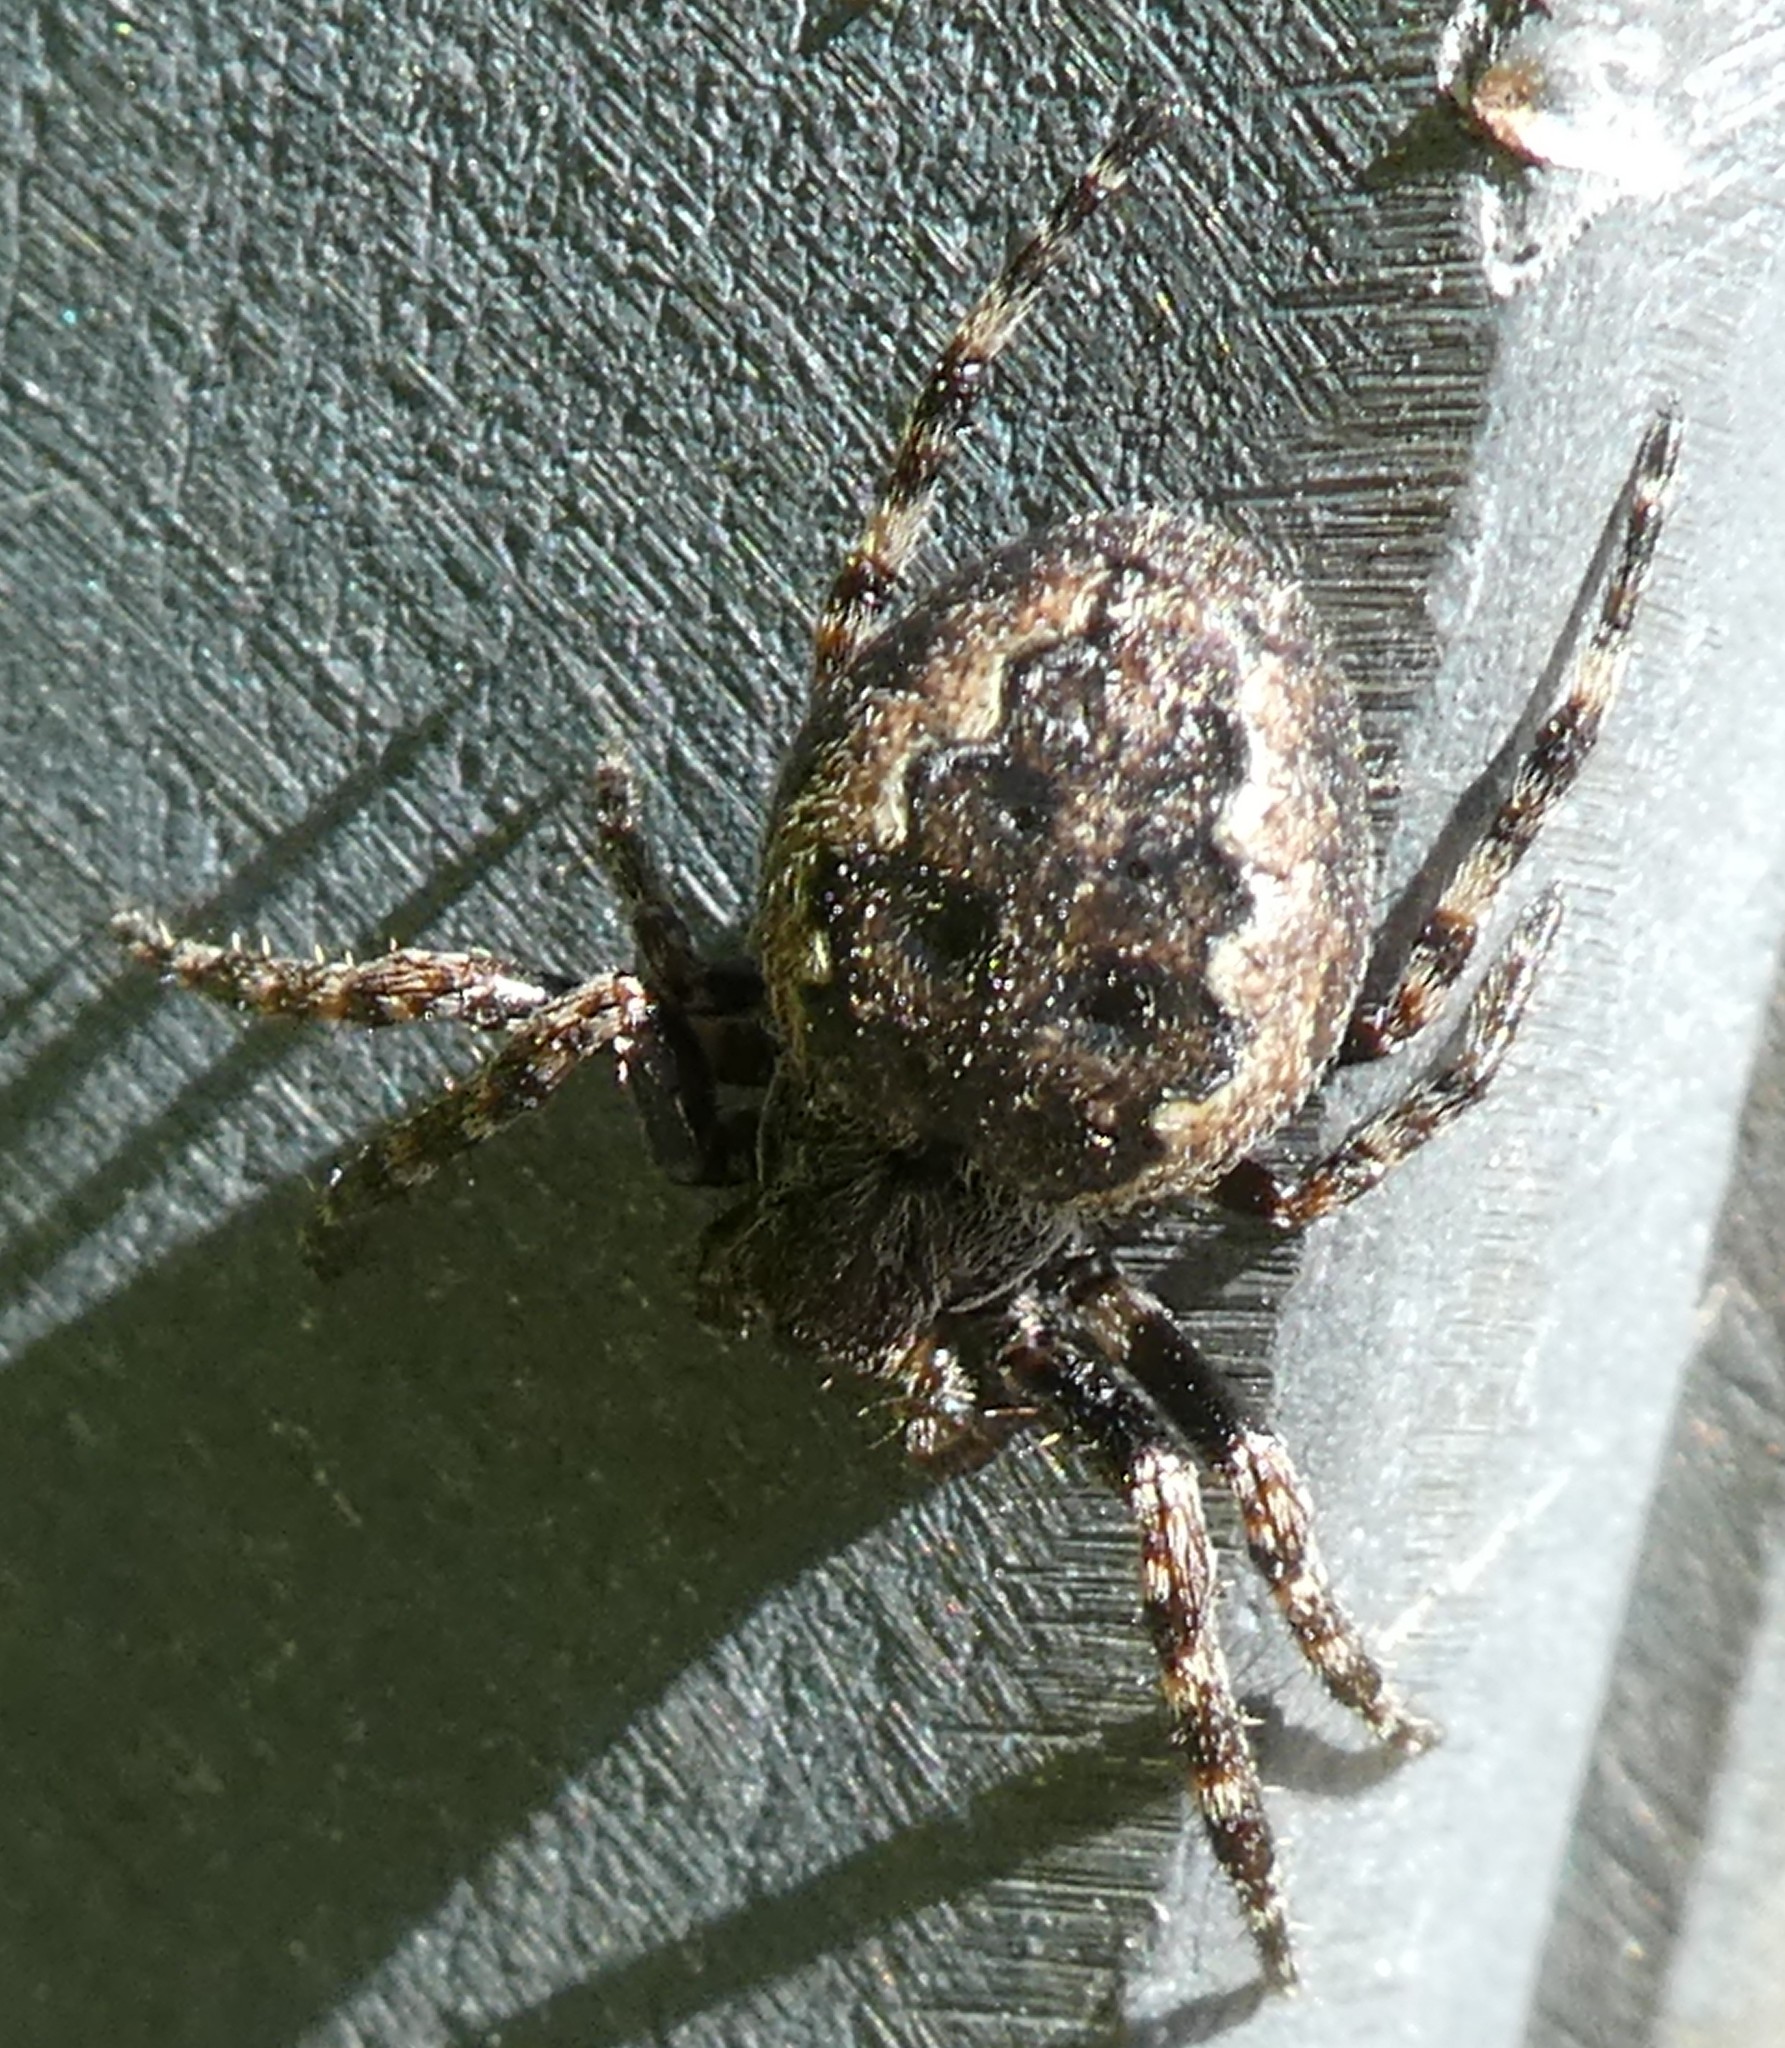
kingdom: Animalia
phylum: Arthropoda
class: Arachnida
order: Araneae
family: Araneidae
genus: Nuctenea
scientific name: Nuctenea umbratica
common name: Toad spider
